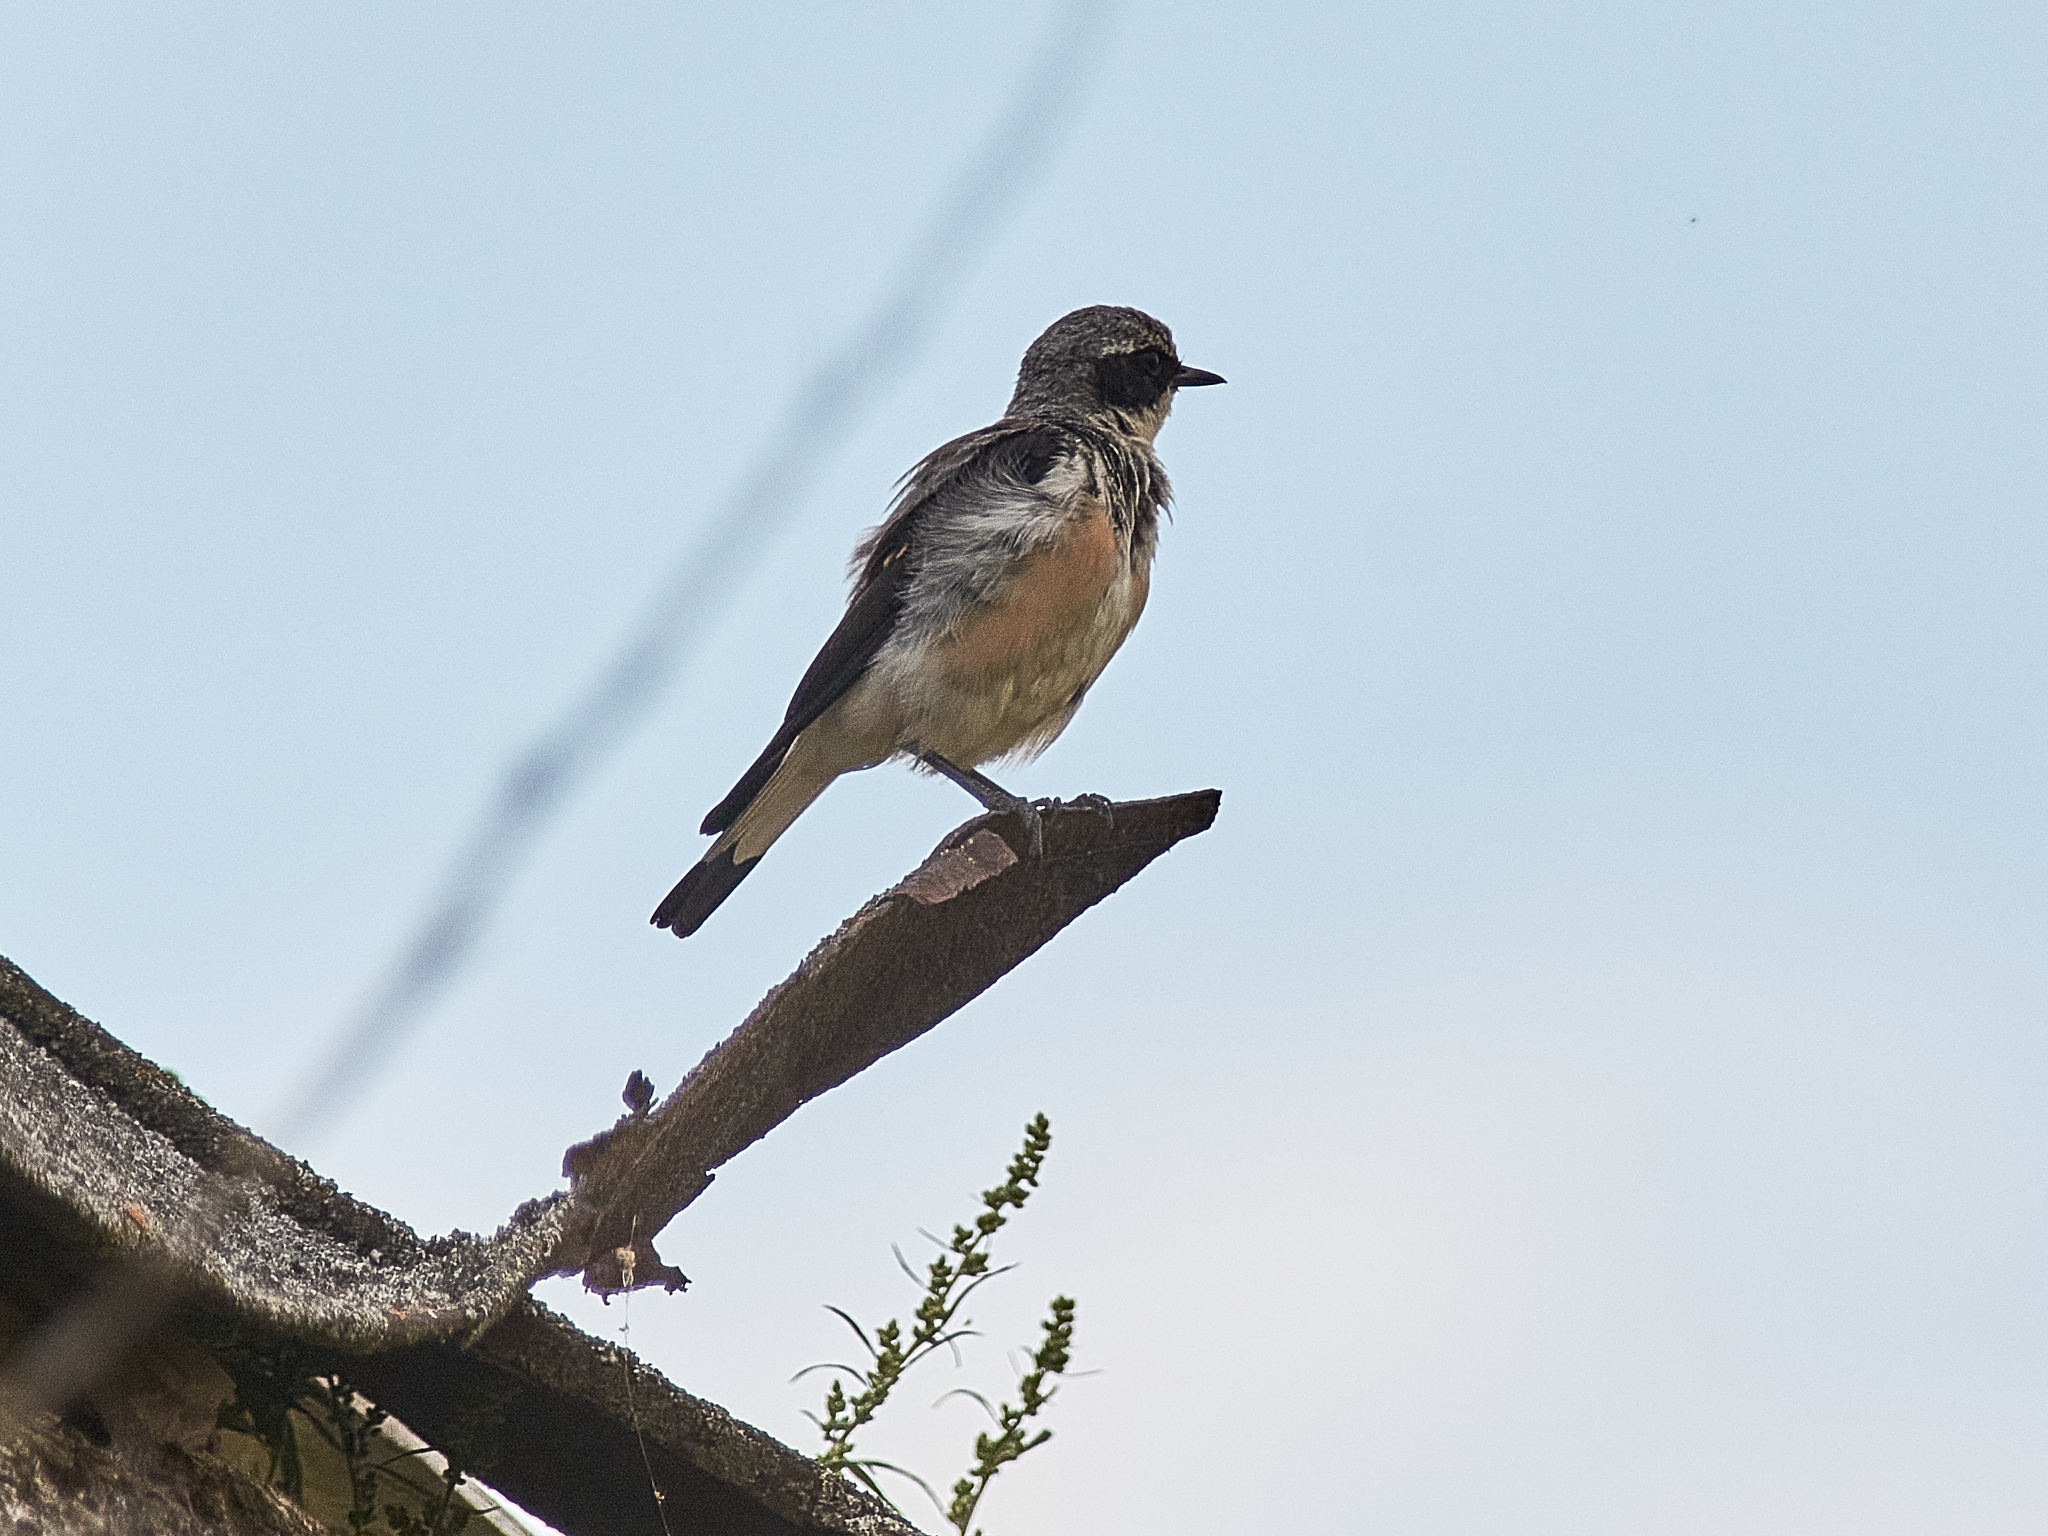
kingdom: Animalia
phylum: Chordata
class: Aves
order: Passeriformes
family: Muscicapidae
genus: Oenanthe
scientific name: Oenanthe oenanthe
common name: Northern wheatear
